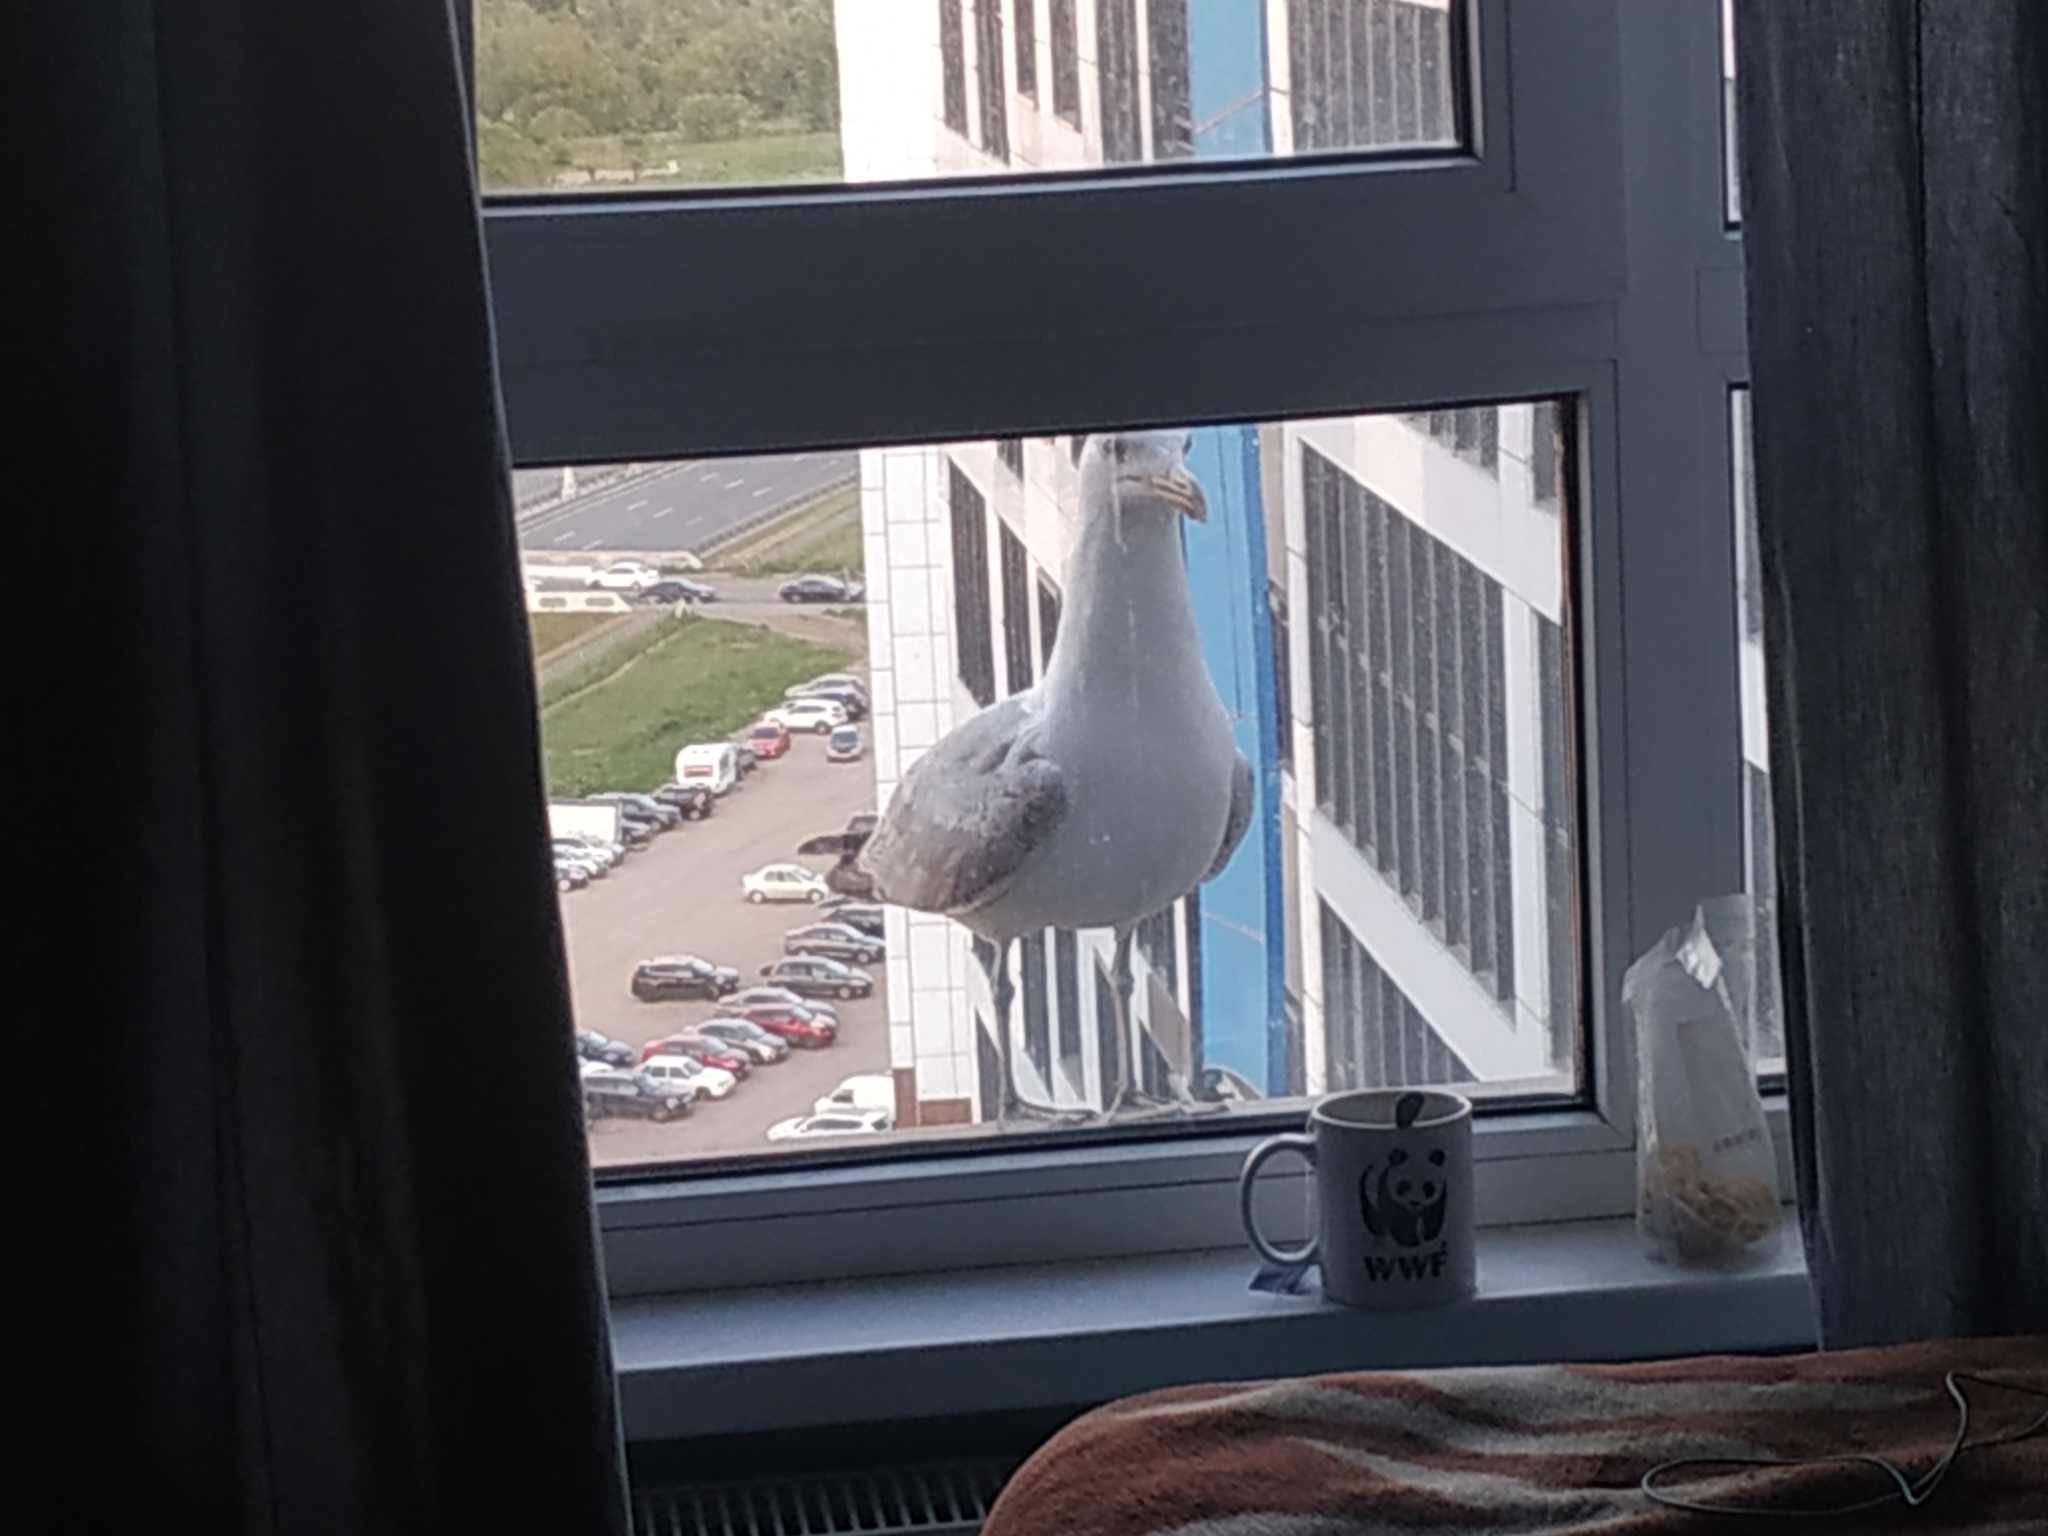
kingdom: Animalia
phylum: Chordata
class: Aves
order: Charadriiformes
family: Laridae
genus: Larus
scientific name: Larus argentatus
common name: Herring gull
